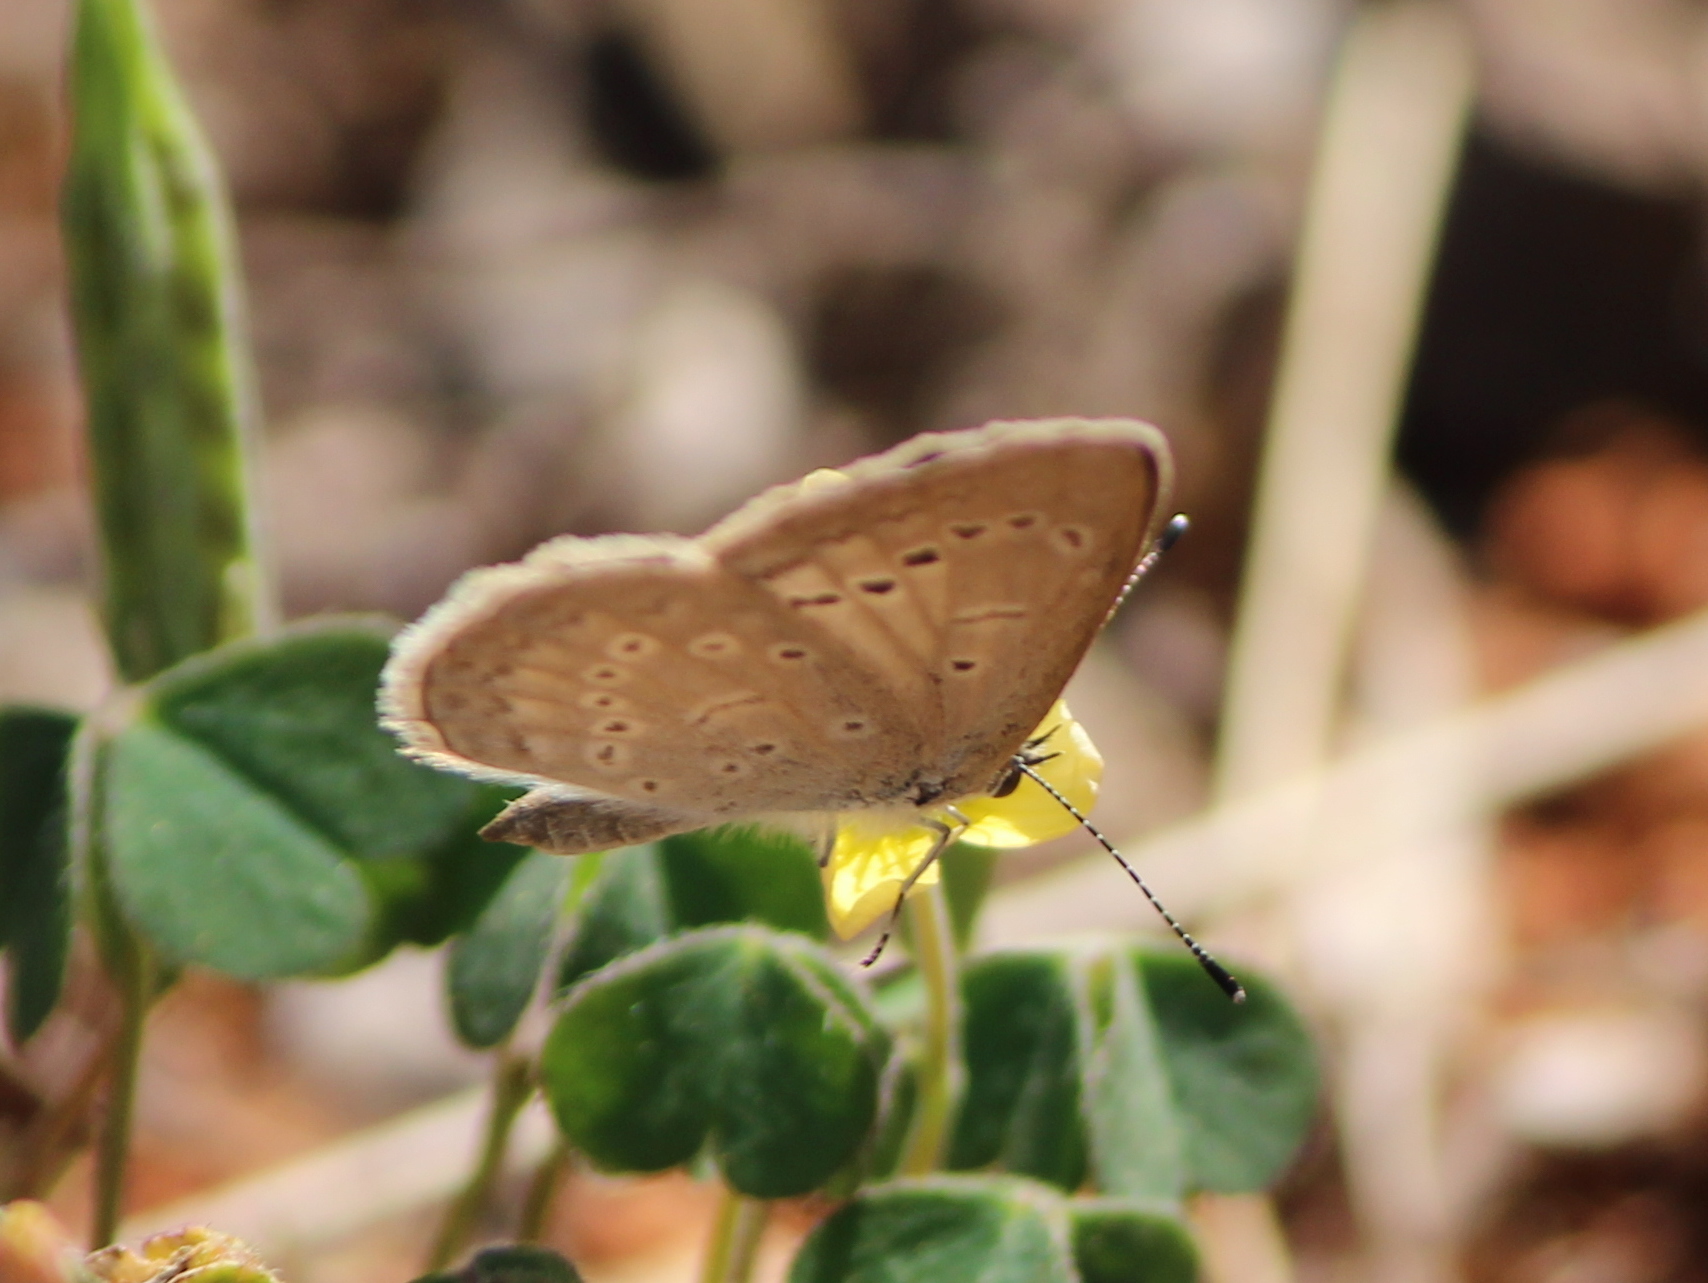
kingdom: Animalia
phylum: Arthropoda
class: Insecta
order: Lepidoptera
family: Lycaenidae
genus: Pseudozizeeria
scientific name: Pseudozizeeria maha
